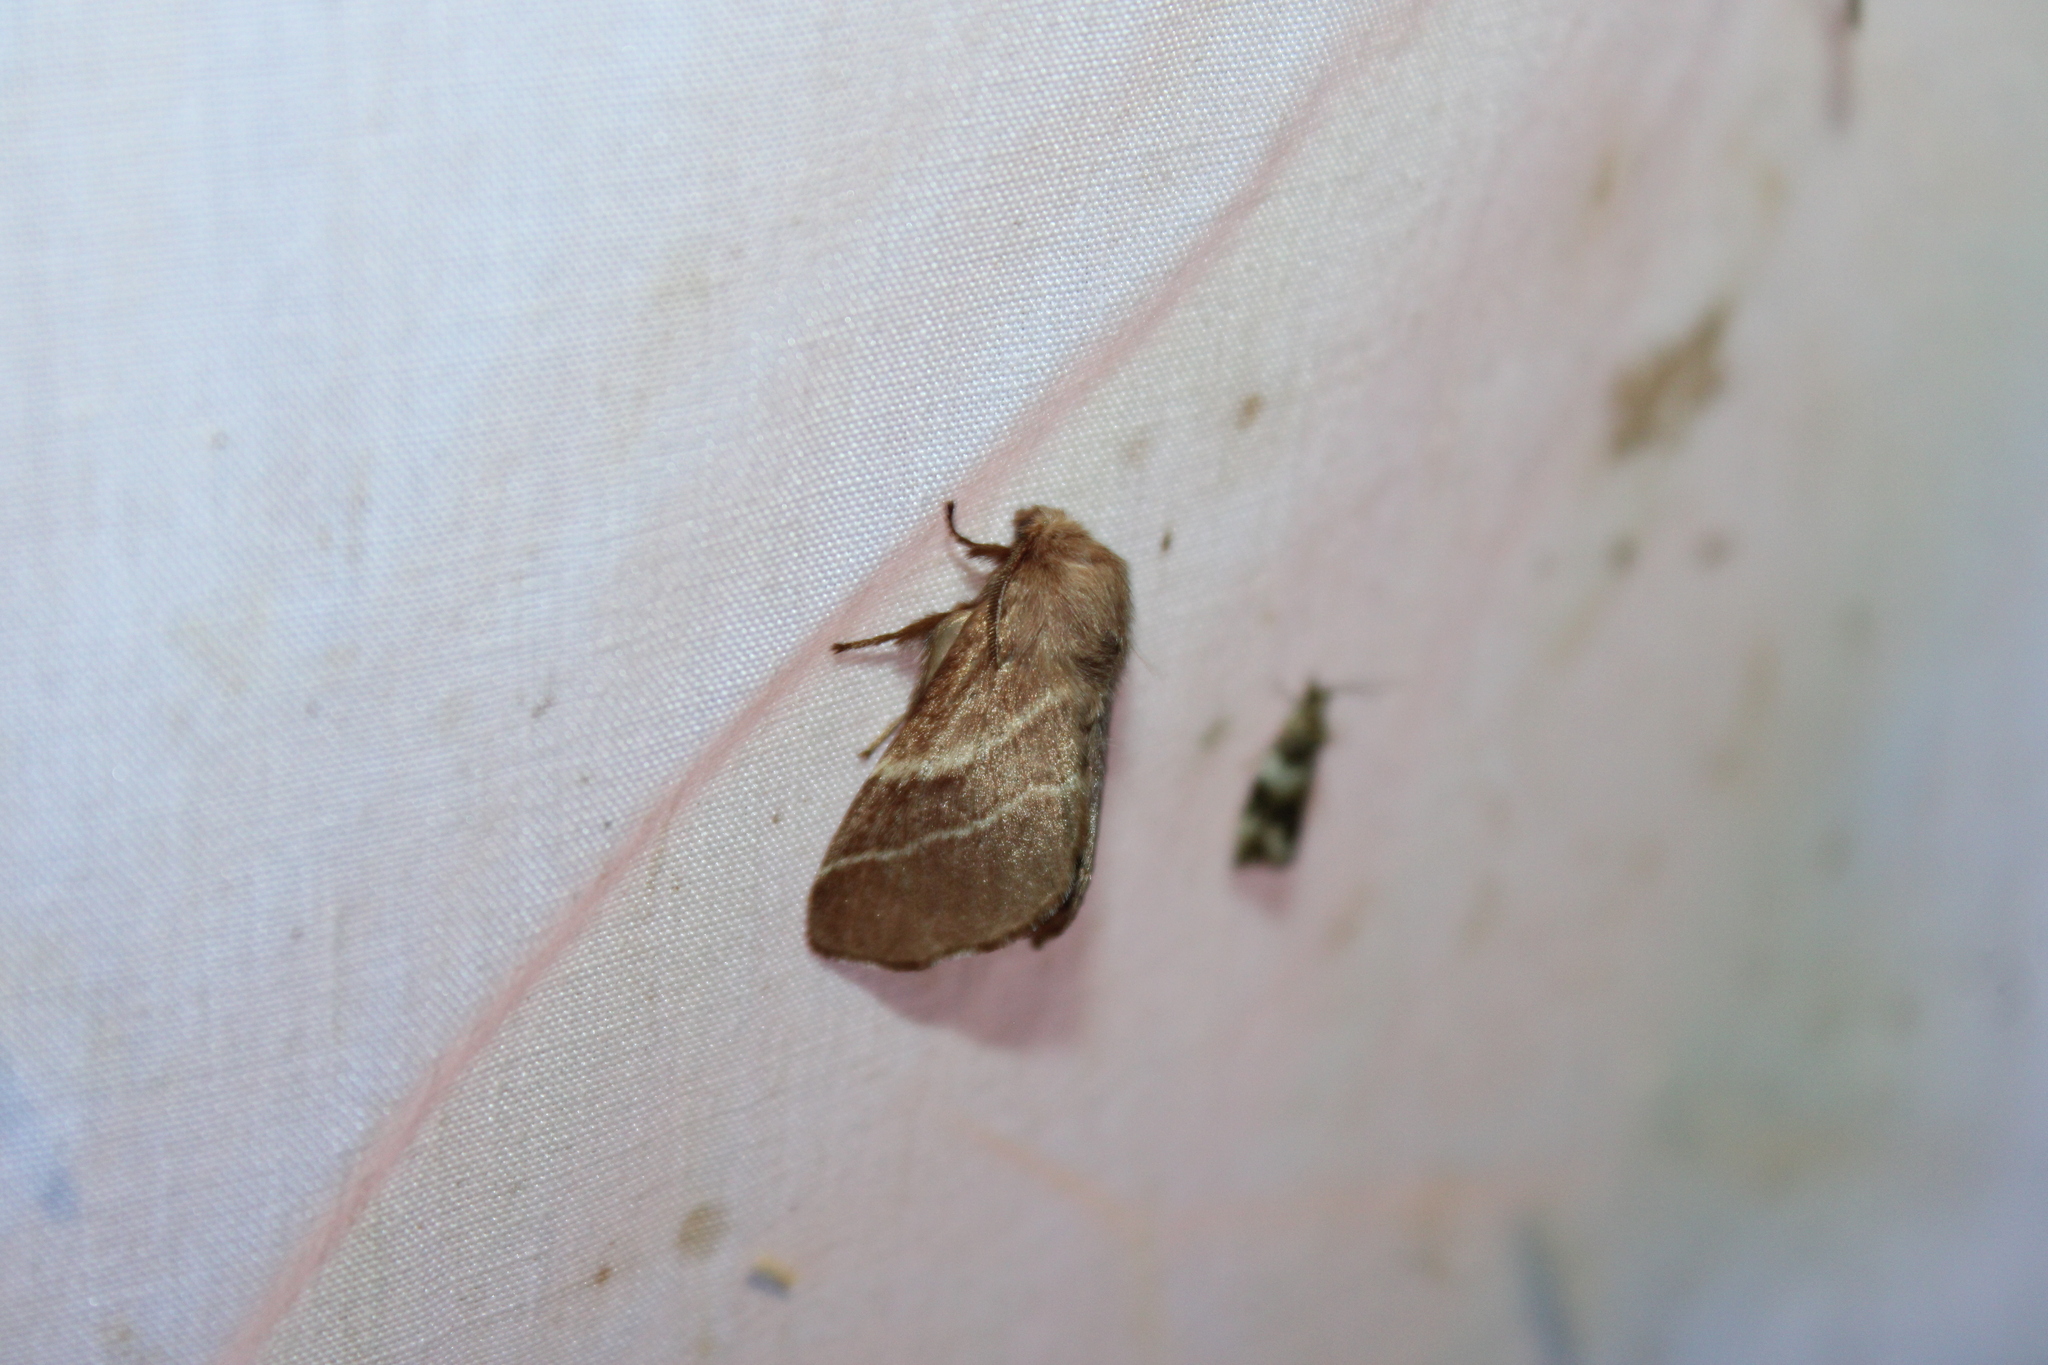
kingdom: Animalia
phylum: Arthropoda
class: Insecta
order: Lepidoptera
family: Lasiocampidae
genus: Malacosoma
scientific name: Malacosoma americana
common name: Eastern tent caterpillar moth
